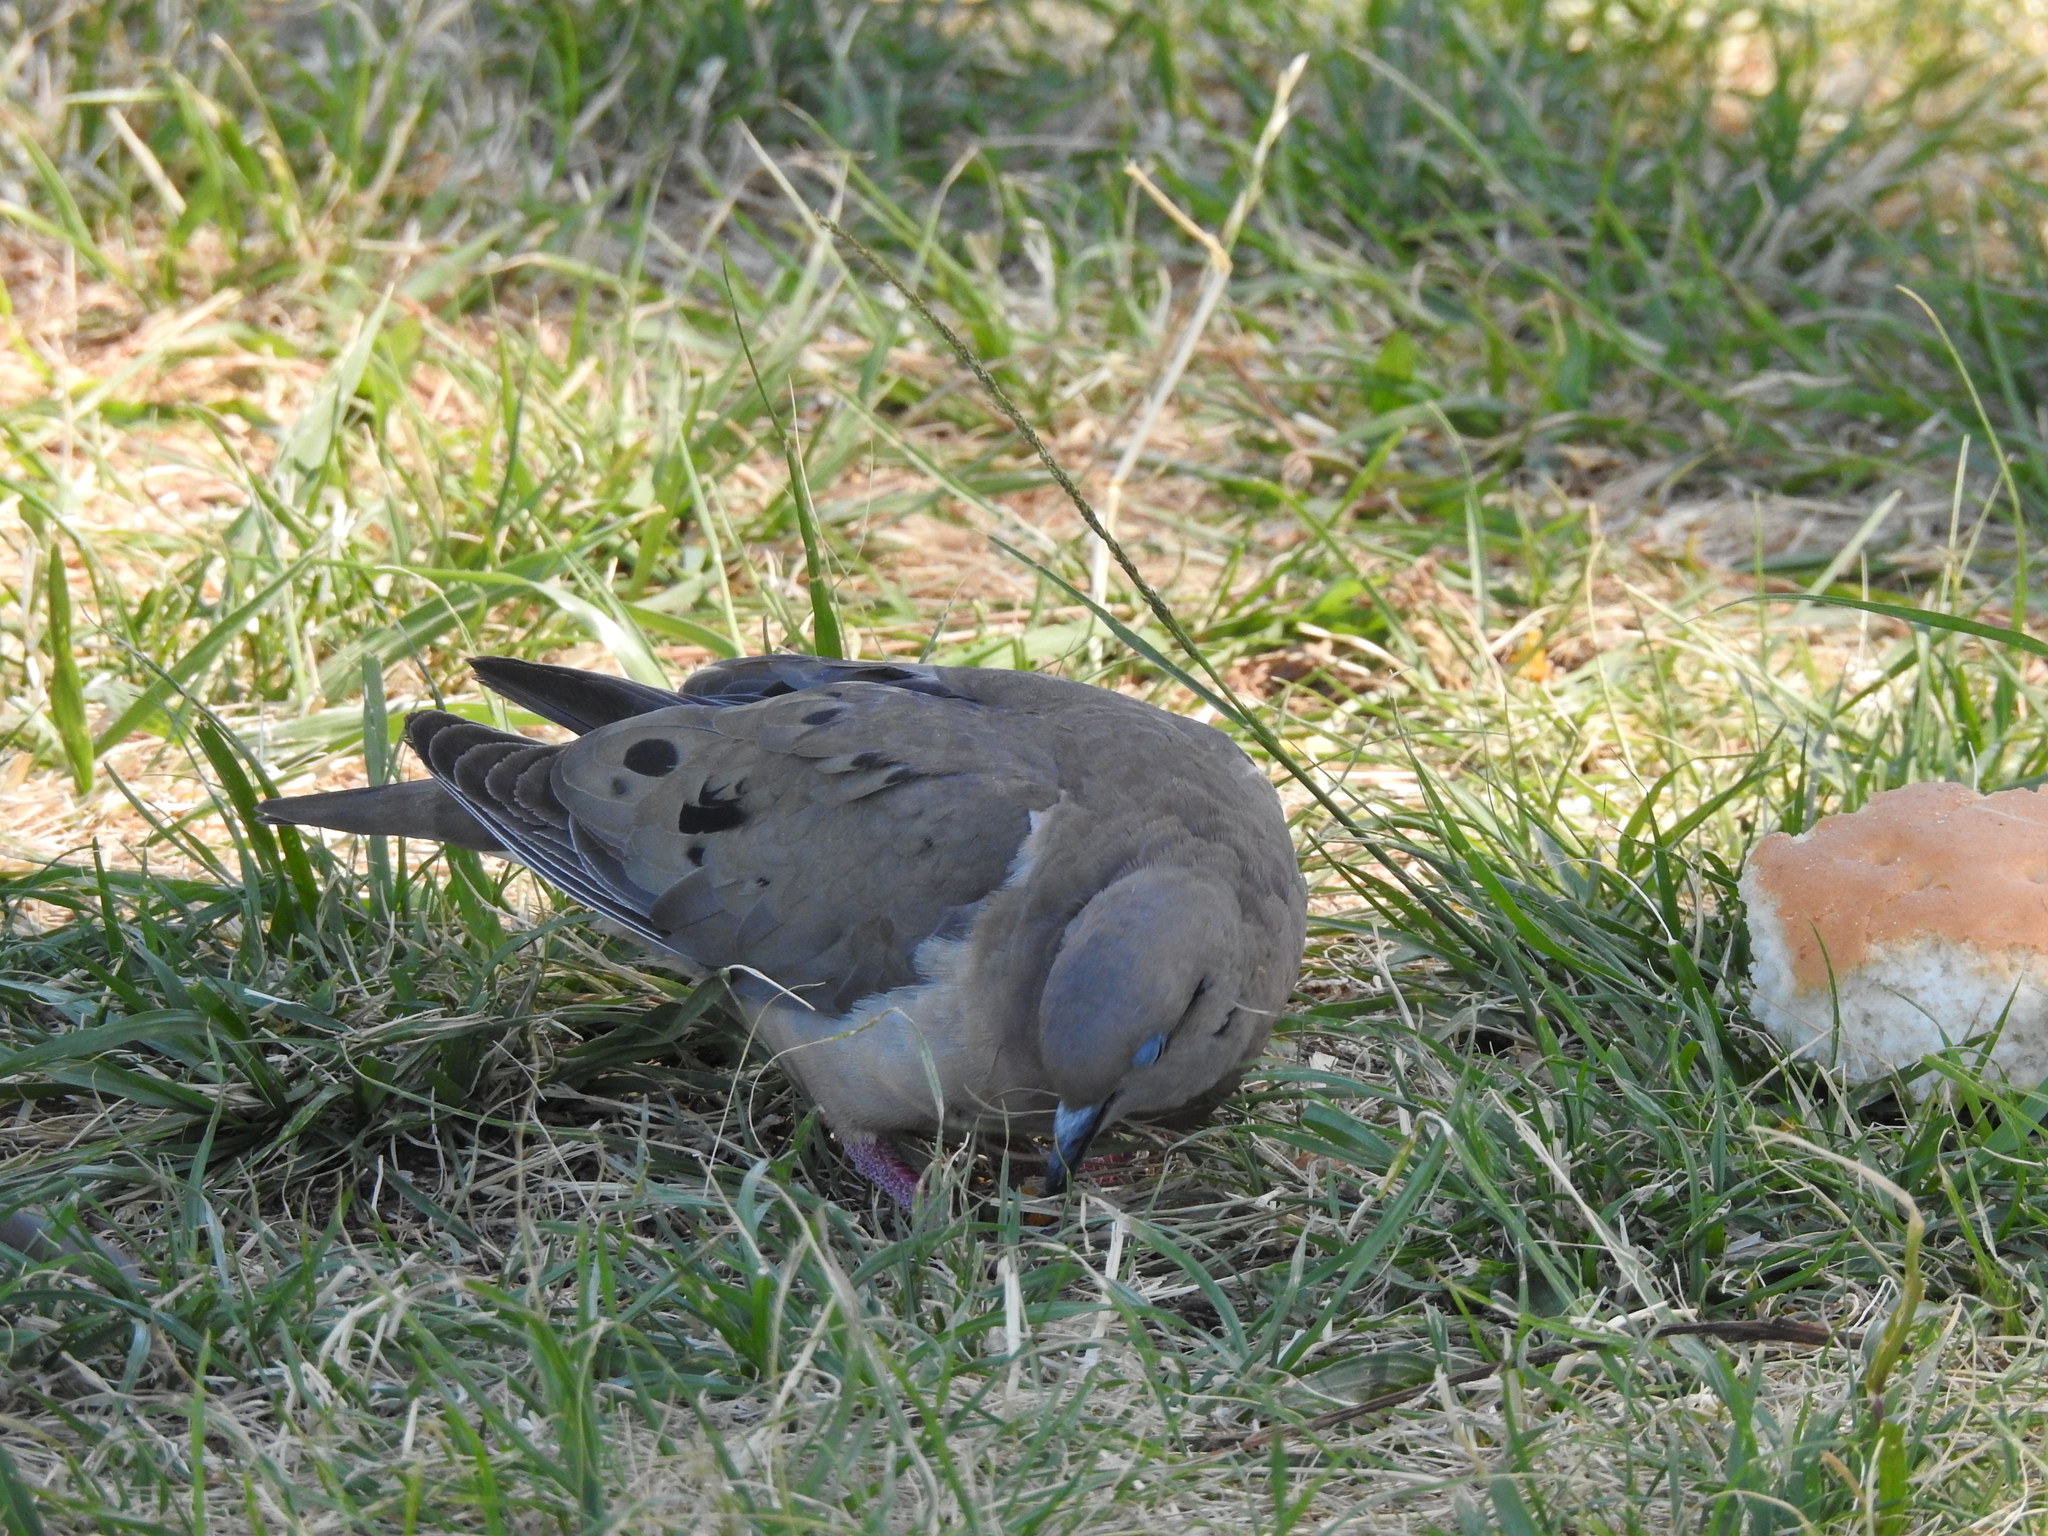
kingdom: Animalia
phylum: Chordata
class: Aves
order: Columbiformes
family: Columbidae
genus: Zenaida
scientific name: Zenaida auriculata
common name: Eared dove
